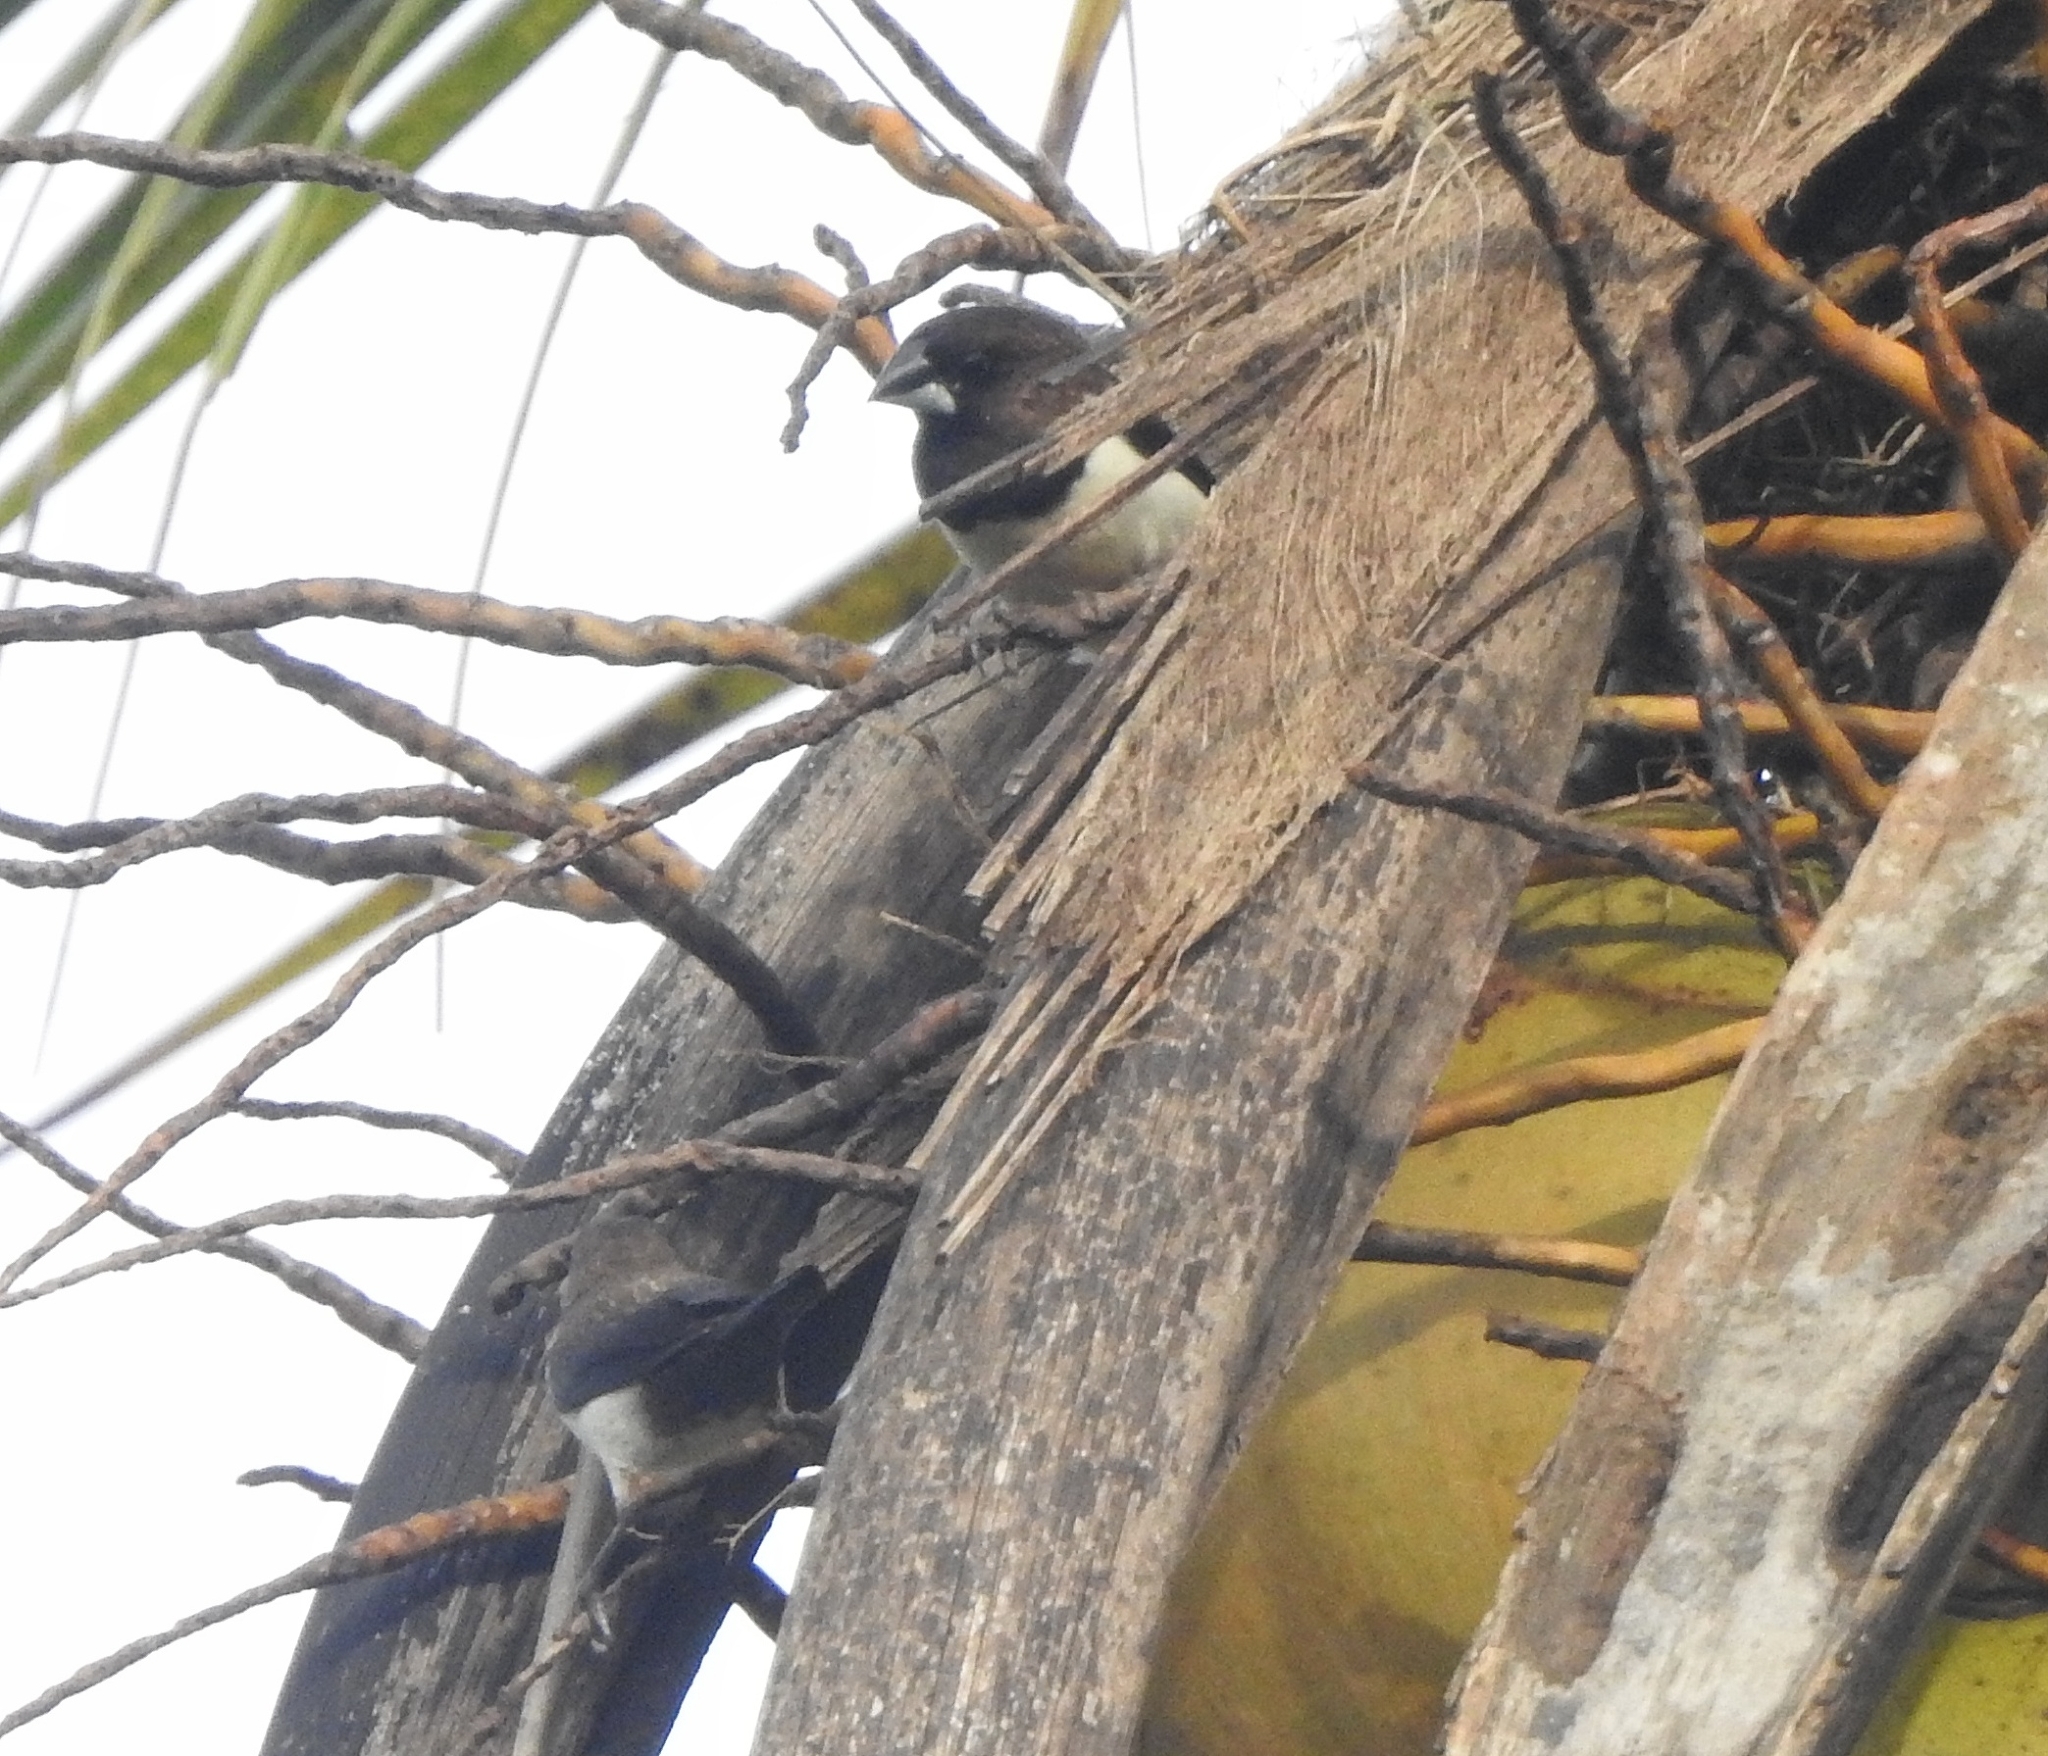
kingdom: Animalia
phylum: Chordata
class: Aves
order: Passeriformes
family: Estrildidae
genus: Lonchura
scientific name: Lonchura striata
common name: White-rumped munia
